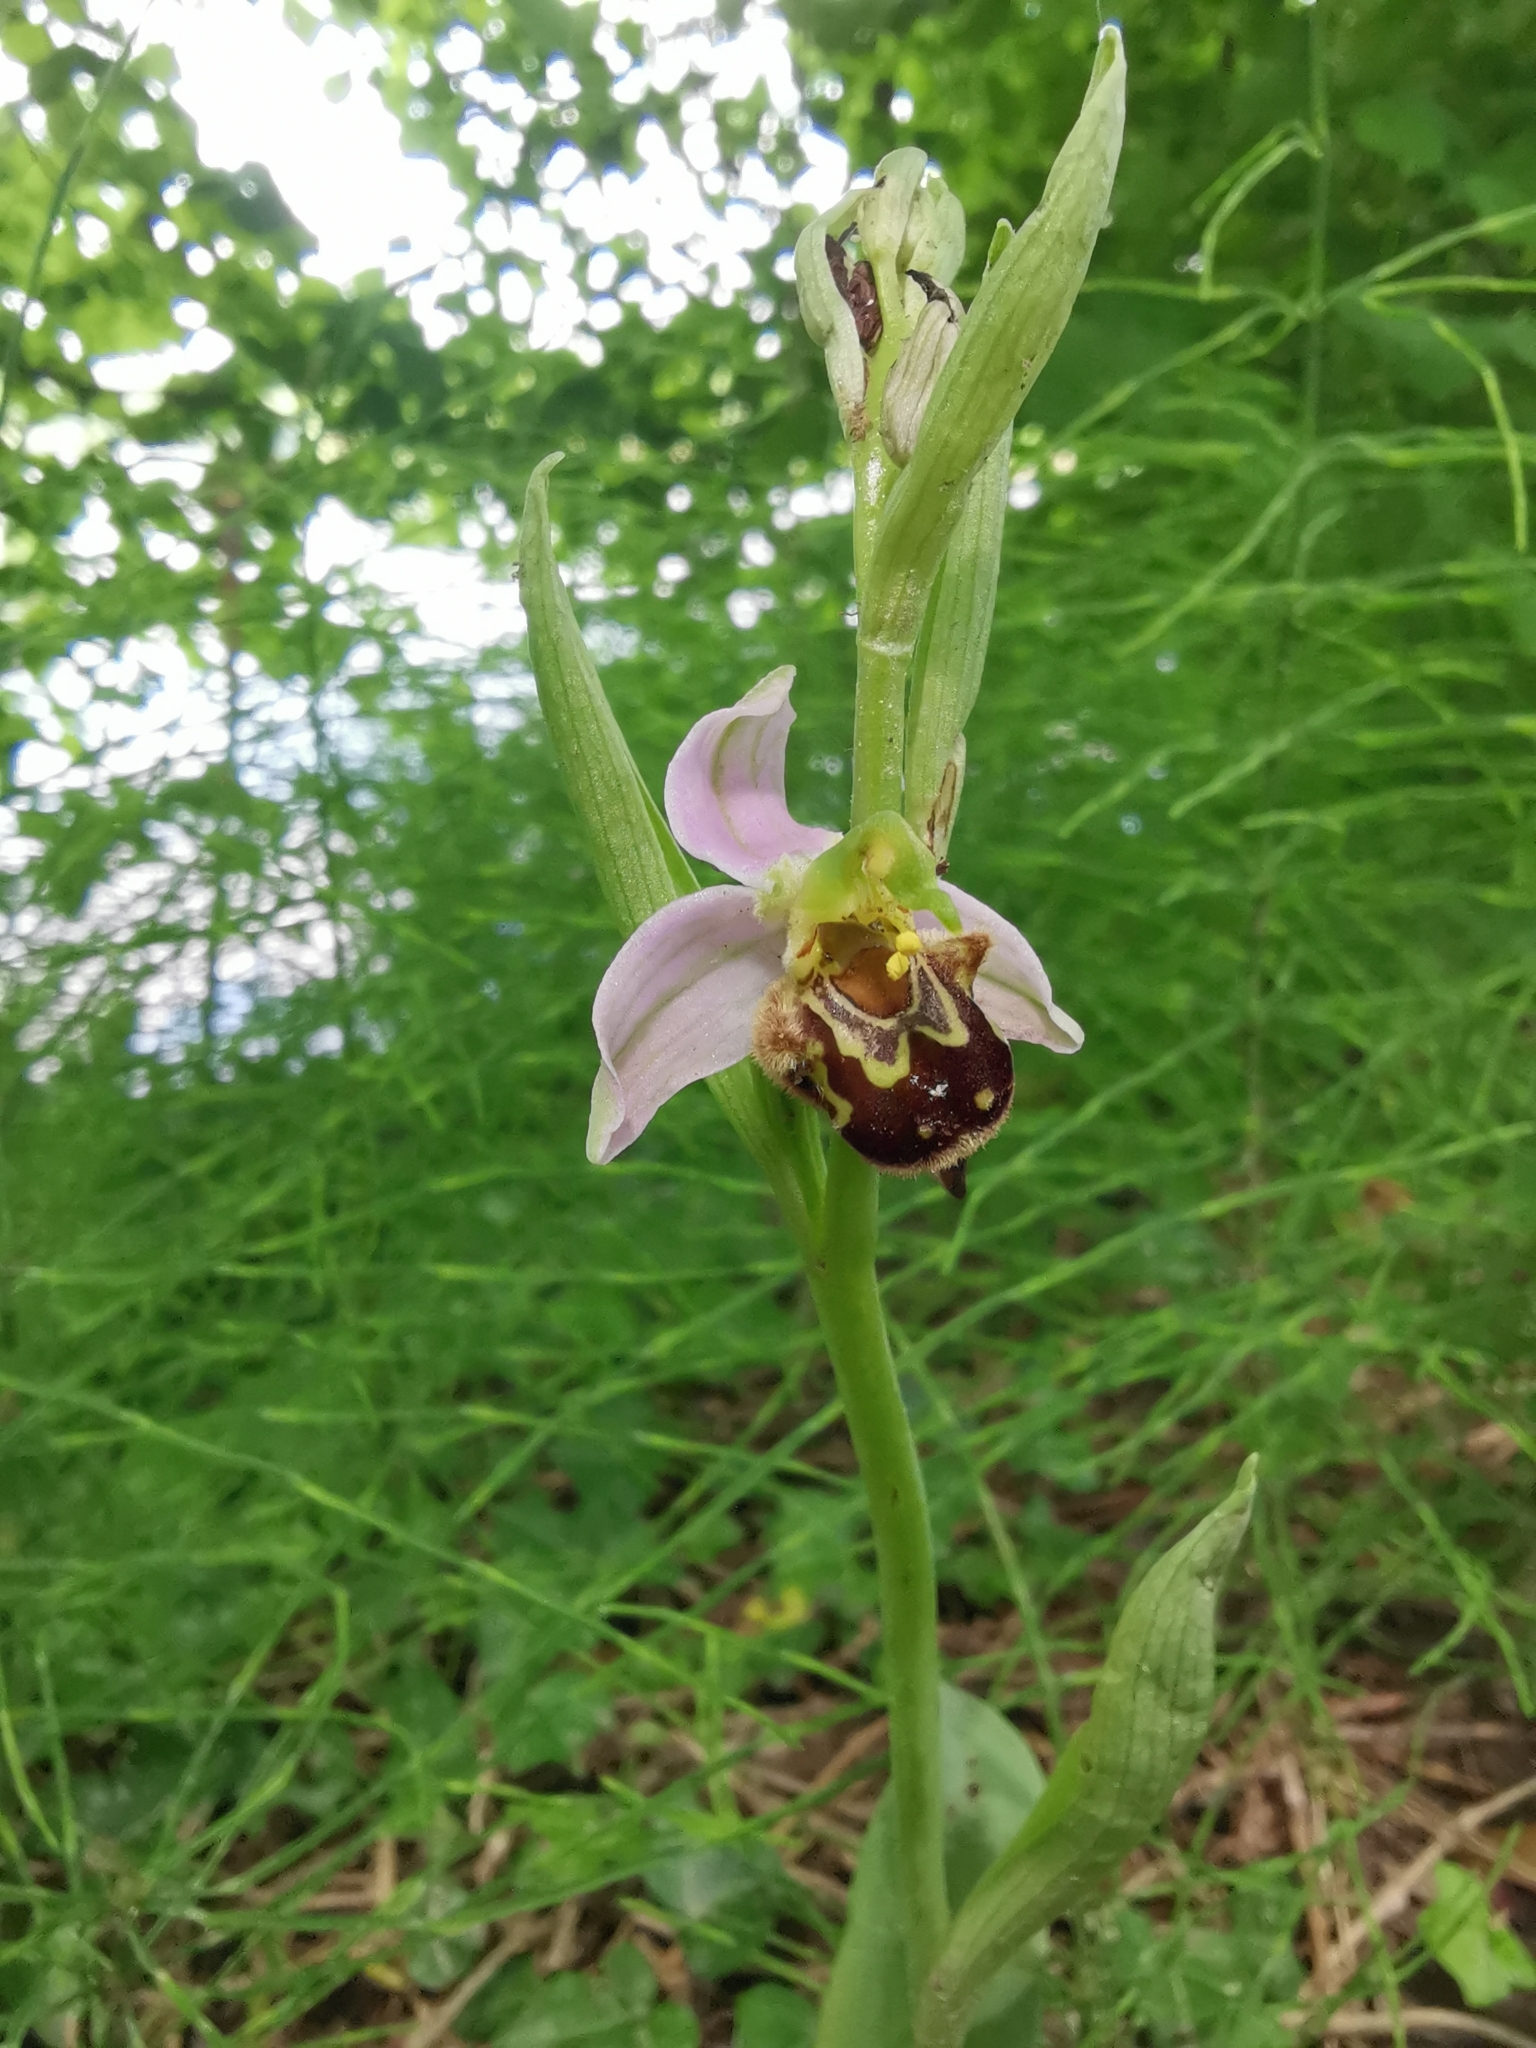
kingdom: Plantae
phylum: Tracheophyta
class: Liliopsida
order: Asparagales
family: Orchidaceae
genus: Ophrys
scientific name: Ophrys apifera
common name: Bee orchid
